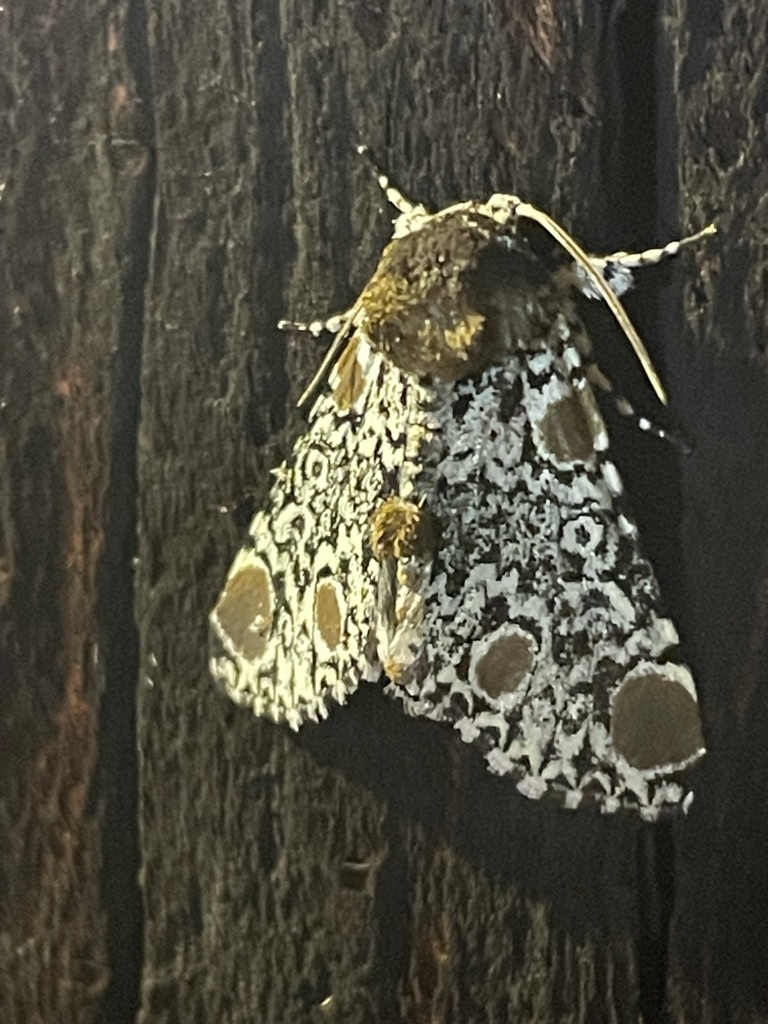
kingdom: Animalia
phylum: Arthropoda
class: Insecta
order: Lepidoptera
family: Noctuidae
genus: Harrisimemna
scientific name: Harrisimemna trisignata
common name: Harris threespot
